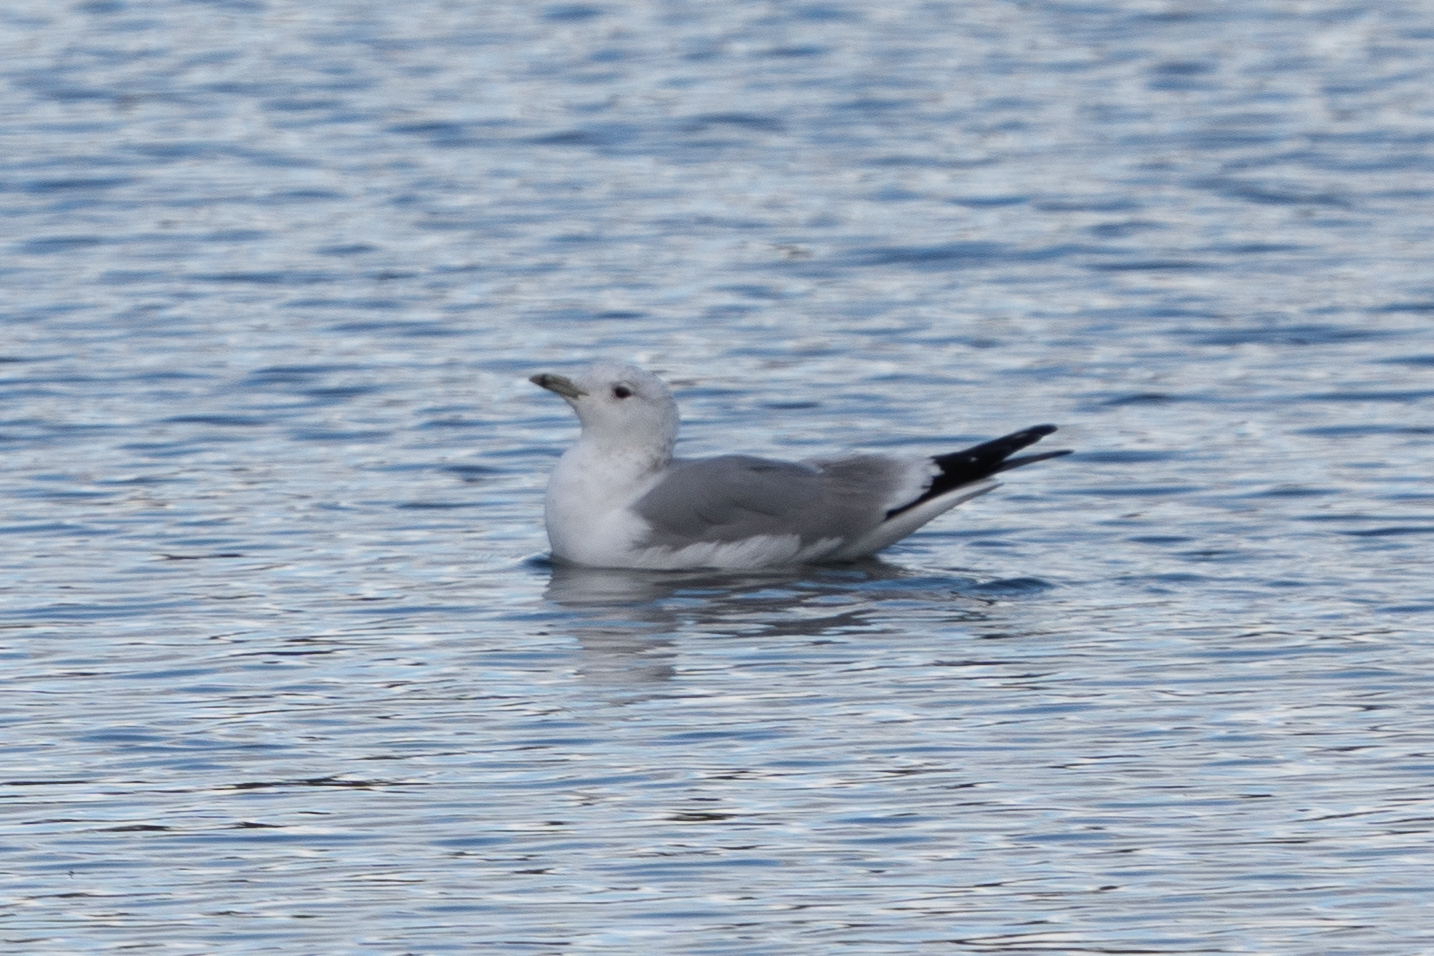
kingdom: Animalia
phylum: Chordata
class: Aves
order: Charadriiformes
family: Laridae
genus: Larus
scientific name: Larus canus
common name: Mew gull
